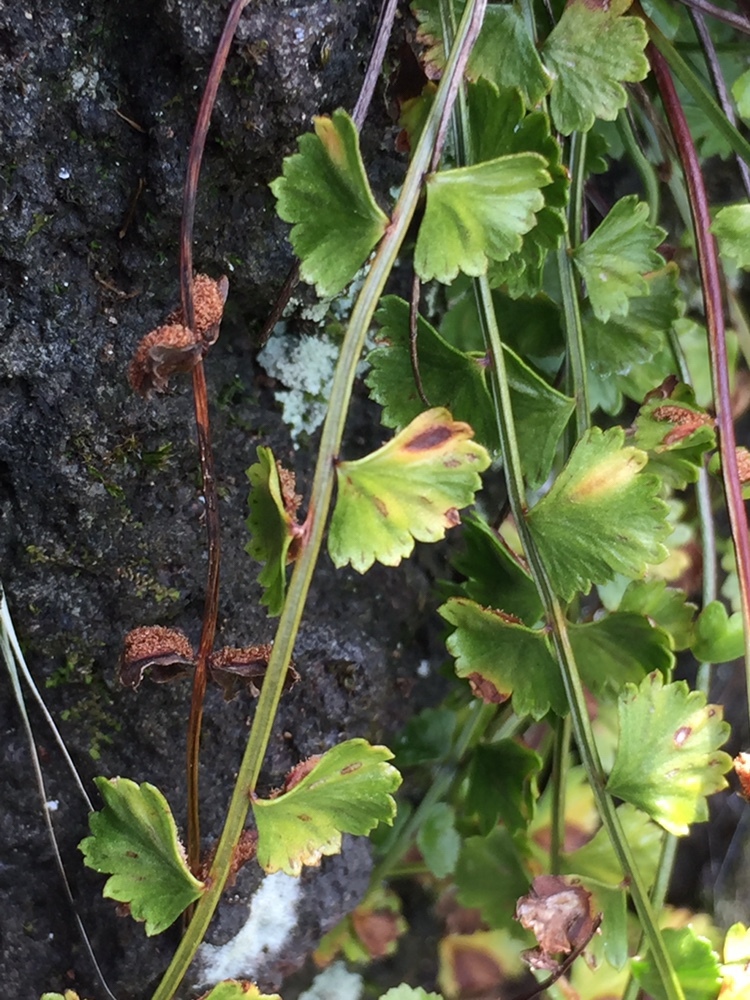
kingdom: Plantae
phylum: Tracheophyta
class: Polypodiopsida
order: Polypodiales
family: Aspleniaceae
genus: Asplenium
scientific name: Asplenium flabellifolium
